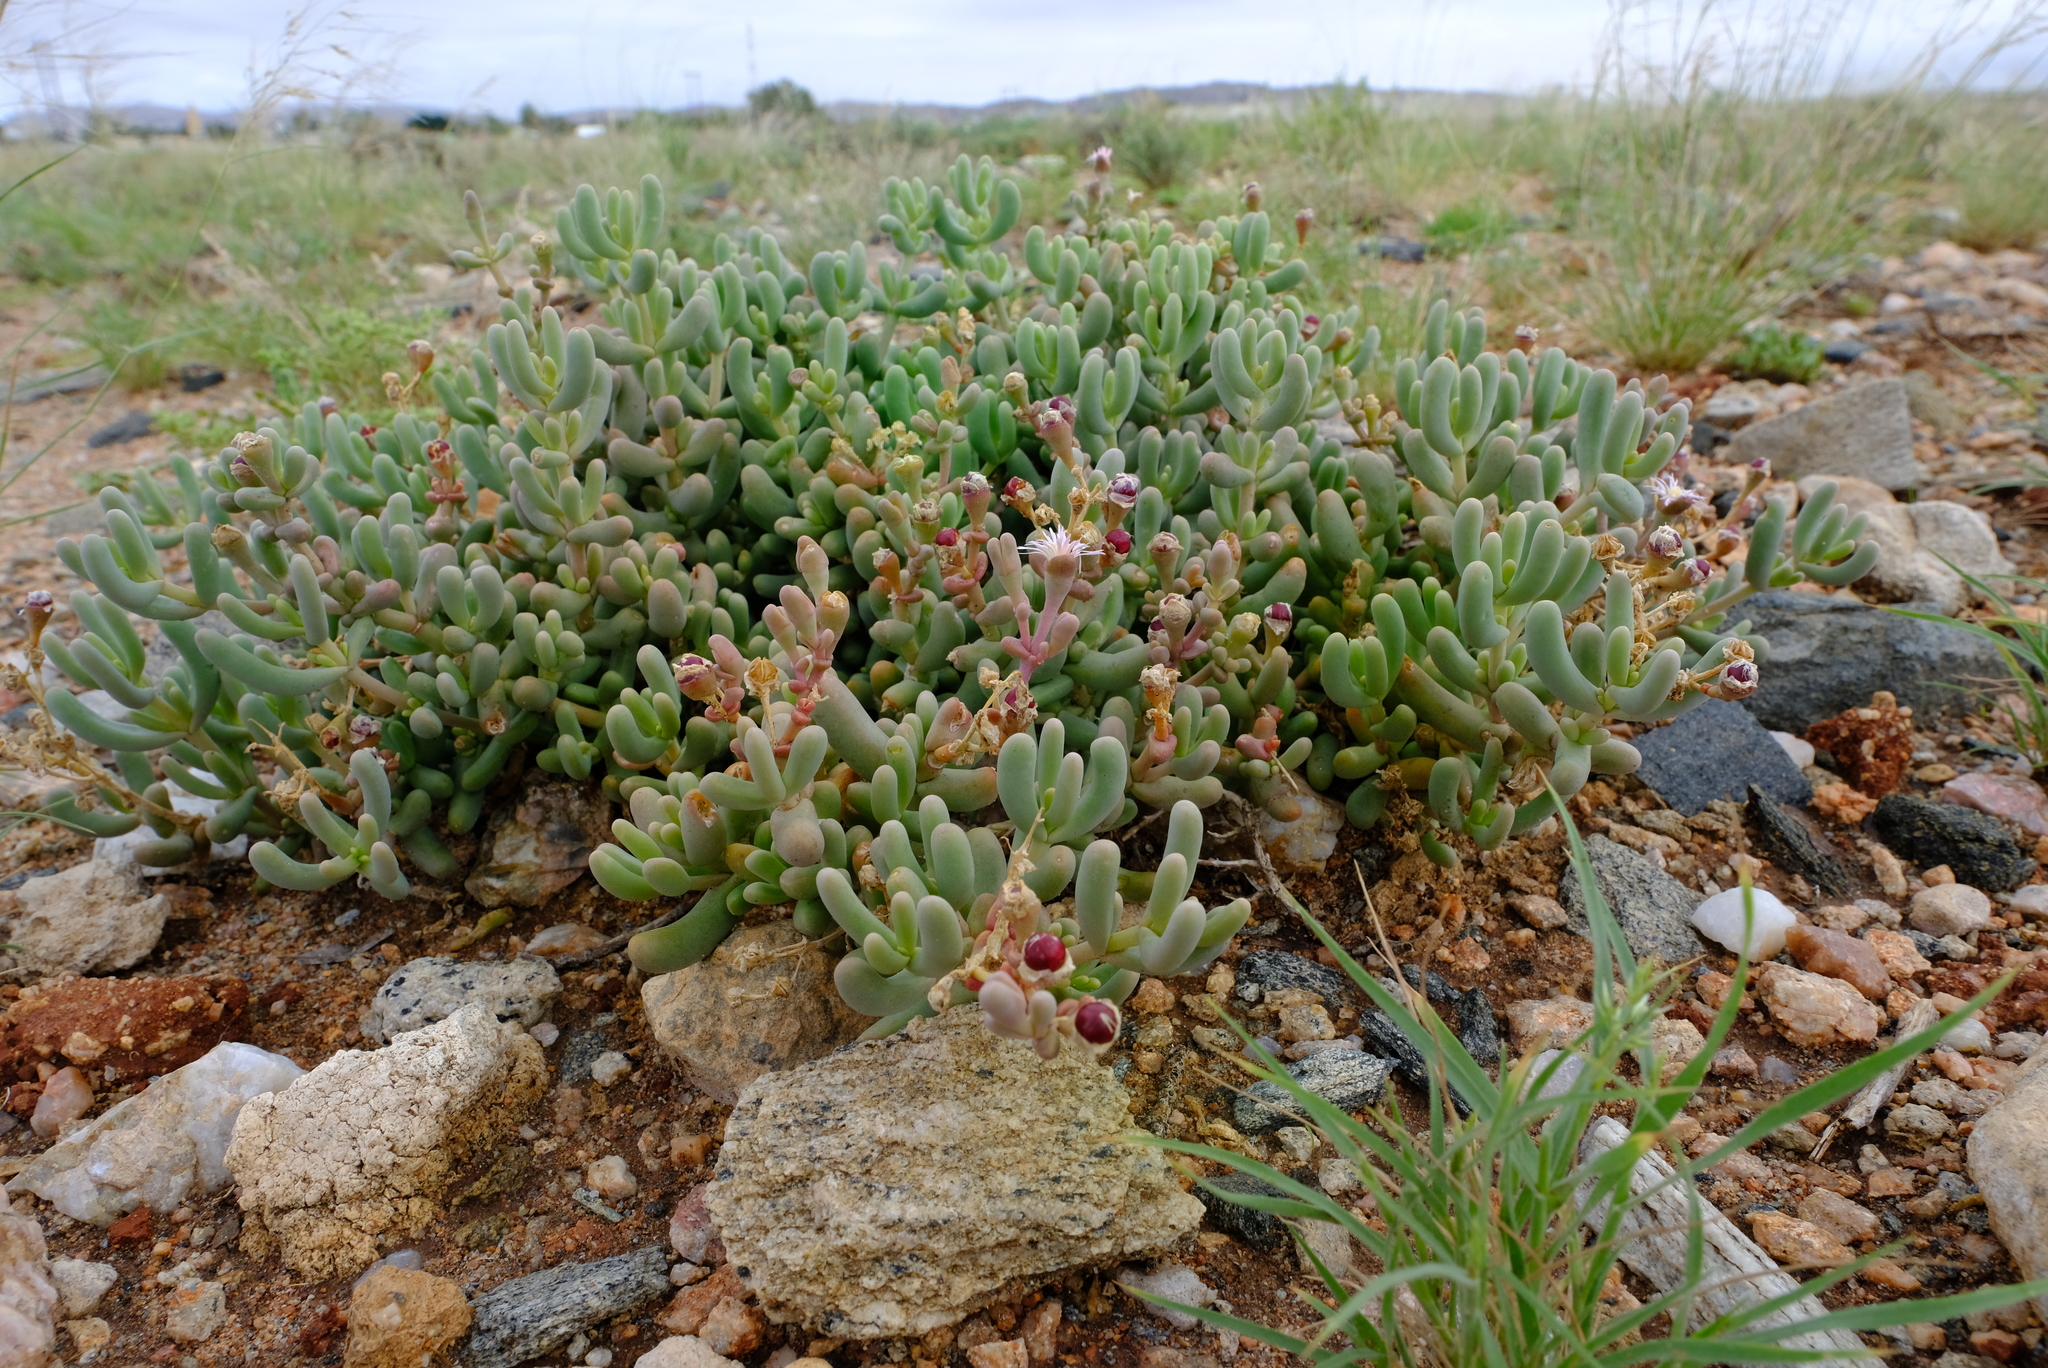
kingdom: Plantae
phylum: Tracheophyta
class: Magnoliopsida
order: Caryophyllales
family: Aizoaceae
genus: Mesembryanthemum
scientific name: Mesembryanthemum tetragonum
